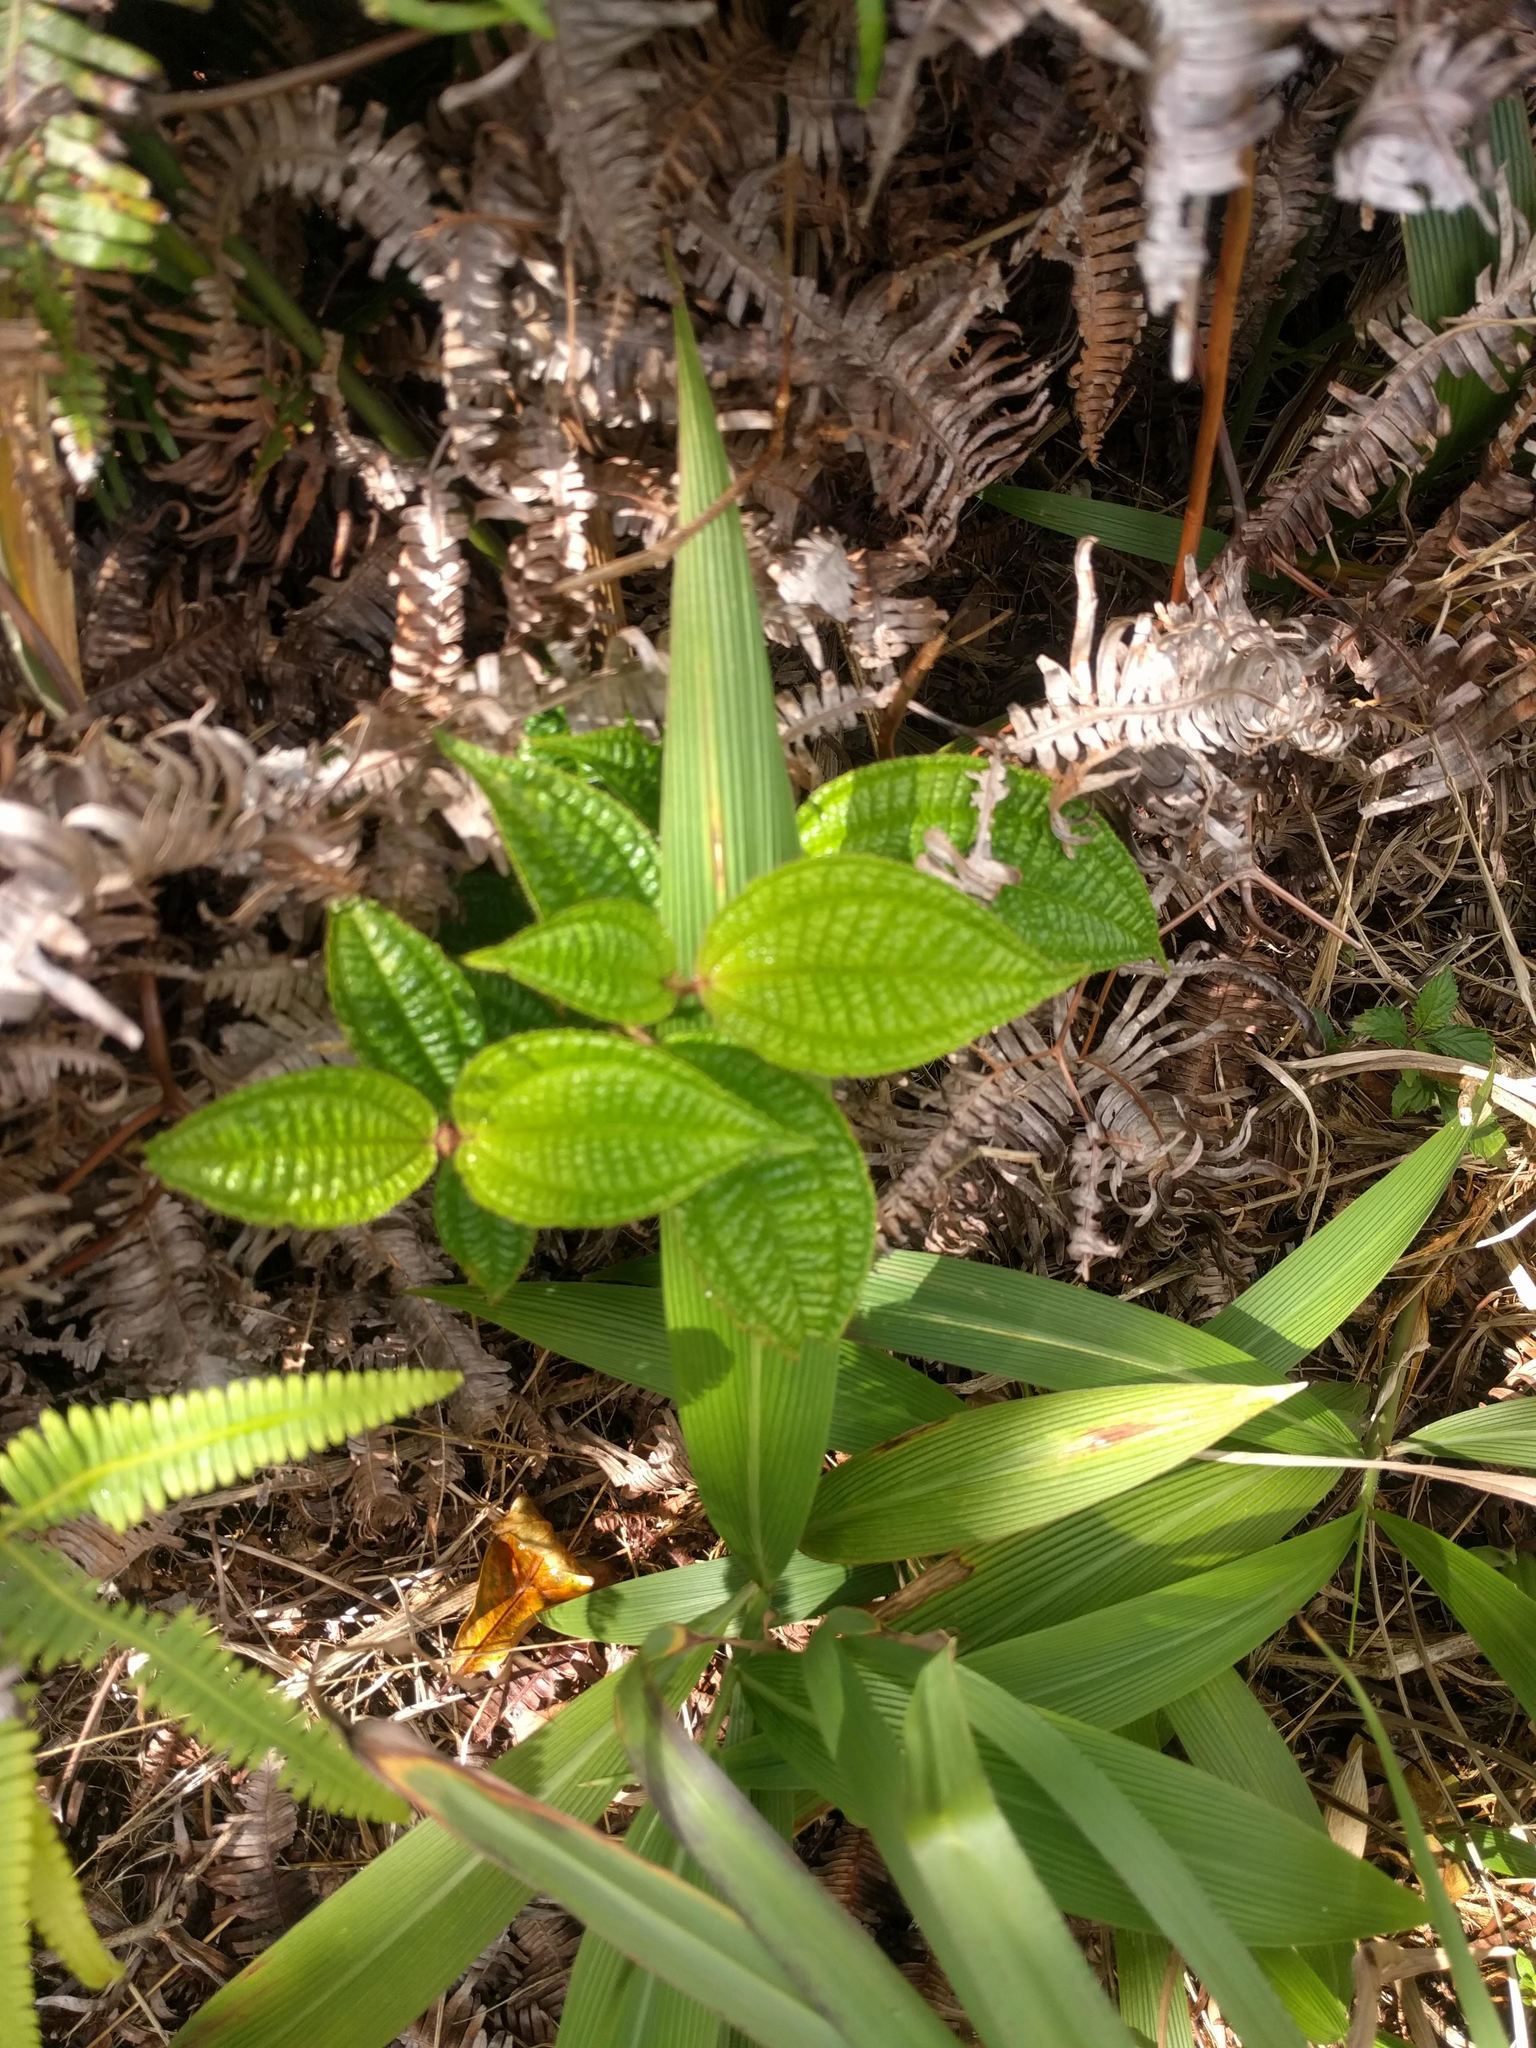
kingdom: Plantae
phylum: Tracheophyta
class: Magnoliopsida
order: Myrtales
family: Melastomataceae
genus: Miconia
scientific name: Miconia crenata
